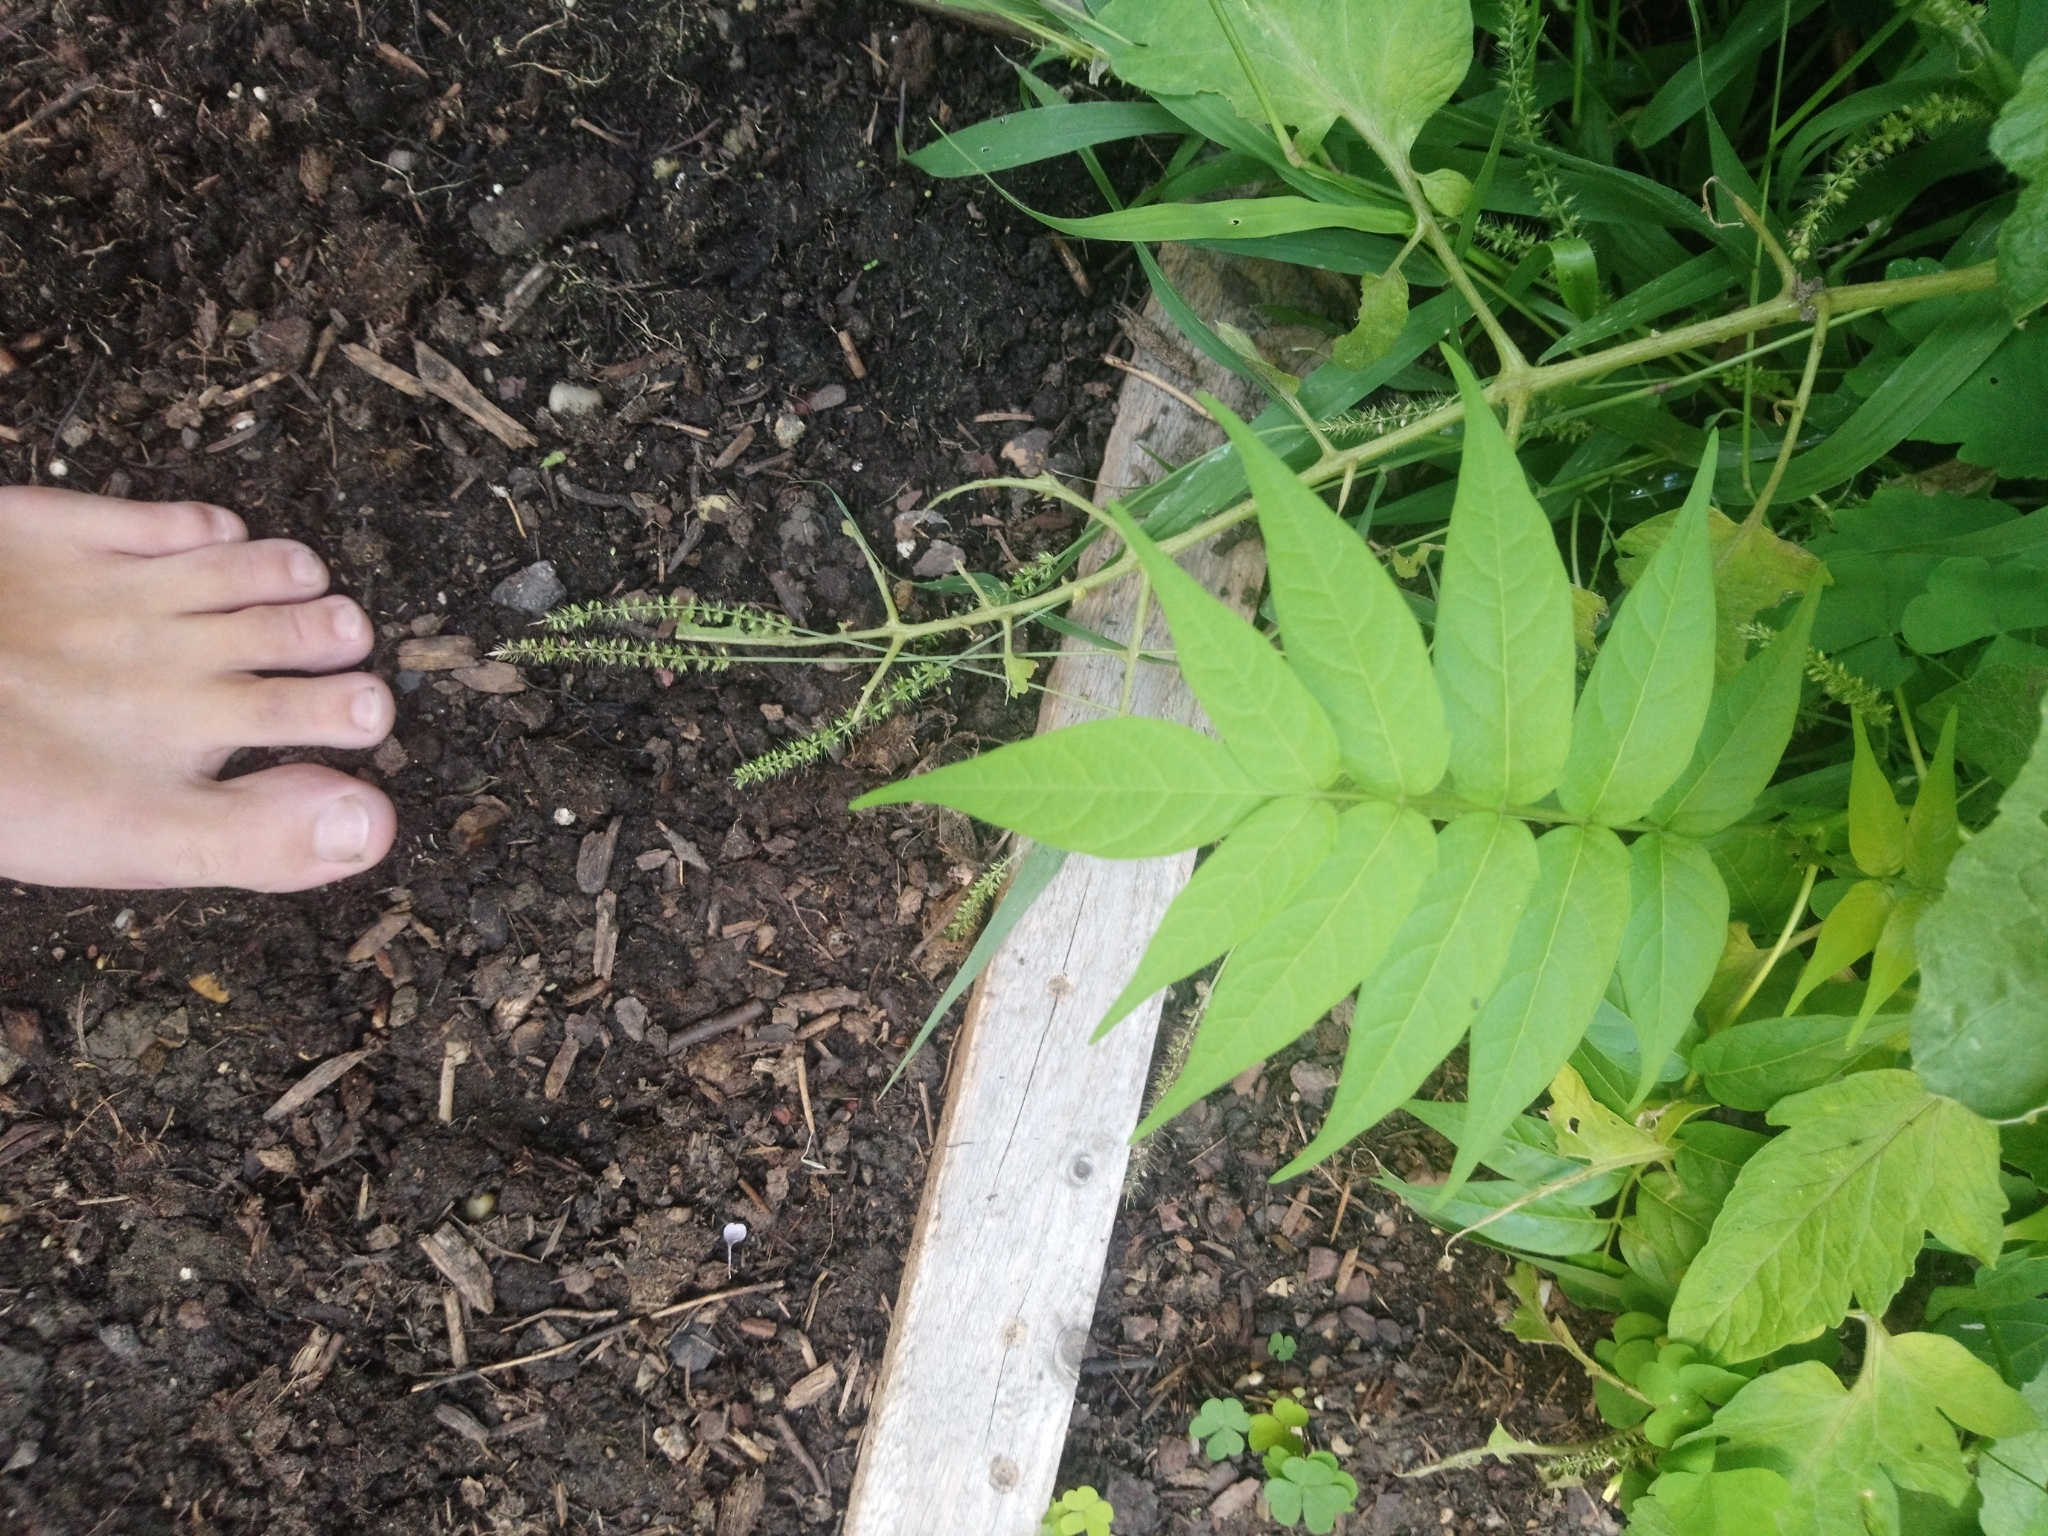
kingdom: Plantae
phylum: Tracheophyta
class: Magnoliopsida
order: Sapindales
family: Simaroubaceae
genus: Ailanthus
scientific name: Ailanthus altissima
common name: Tree-of-heaven
